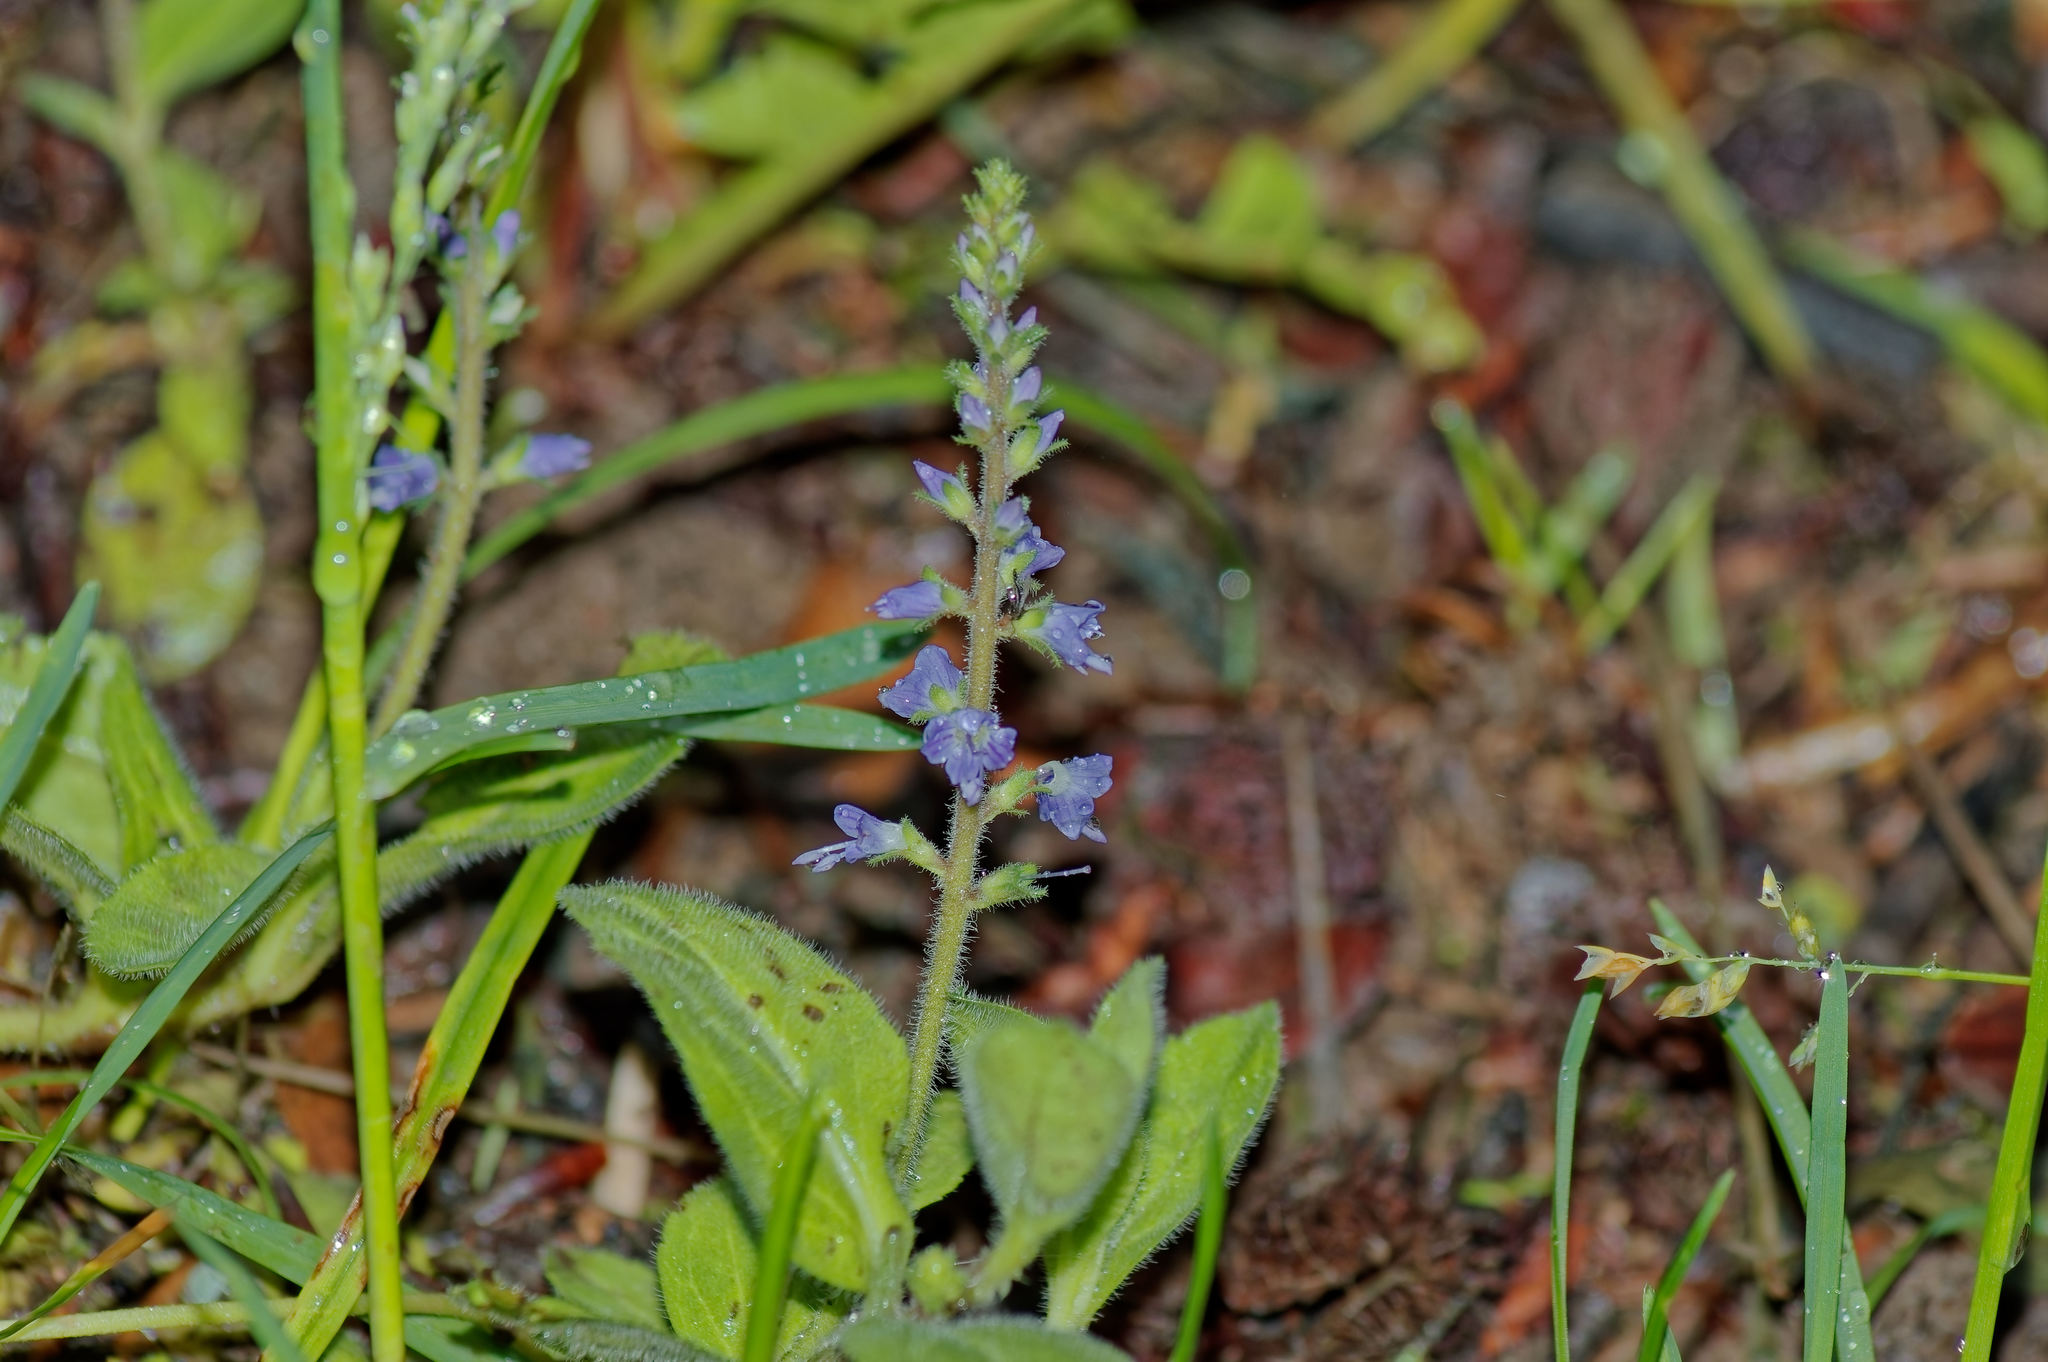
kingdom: Plantae
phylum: Tracheophyta
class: Magnoliopsida
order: Lamiales
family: Plantaginaceae
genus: Veronica
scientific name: Veronica officinalis
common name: Common speedwell
